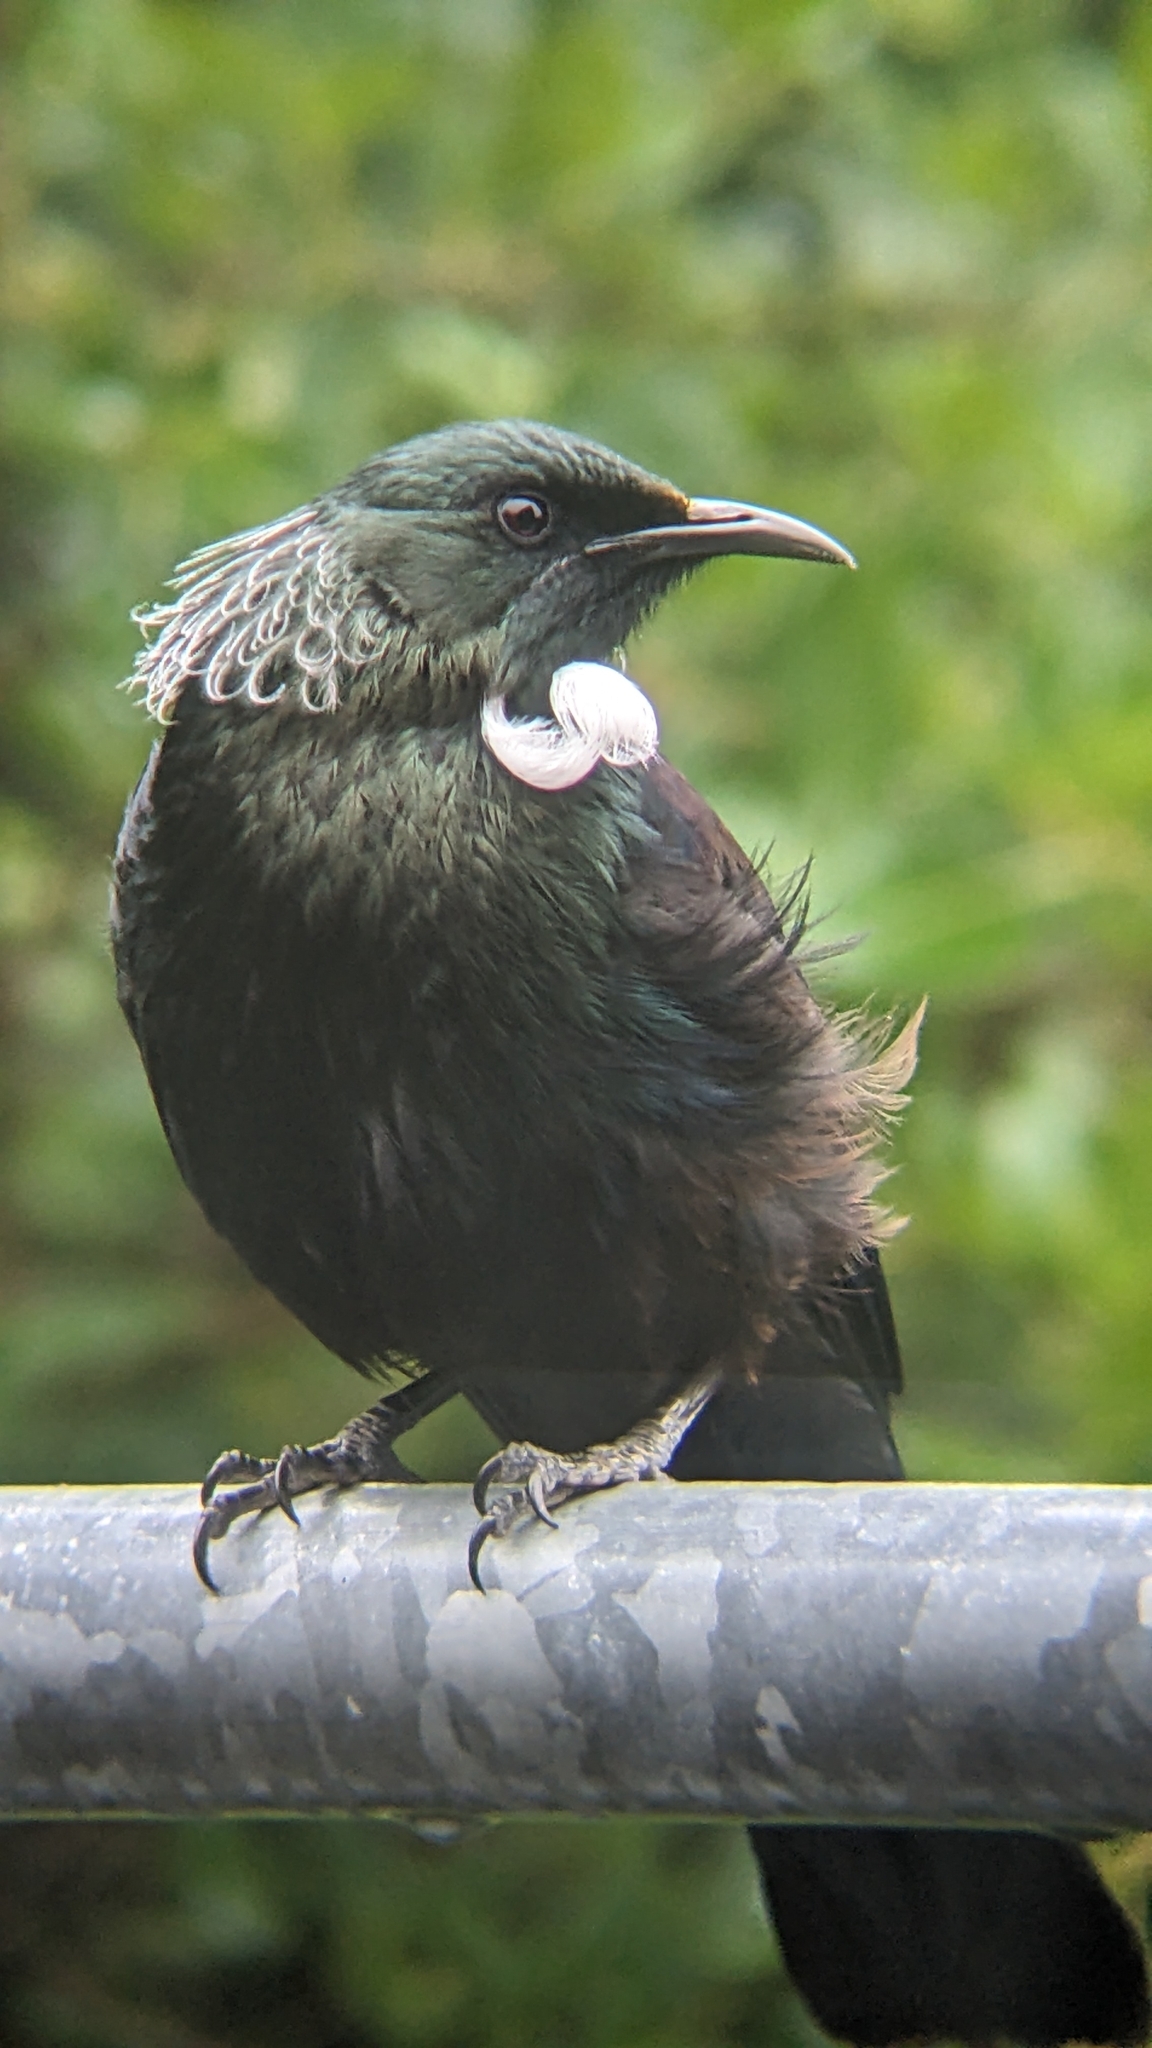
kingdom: Animalia
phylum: Chordata
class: Aves
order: Passeriformes
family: Meliphagidae
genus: Prosthemadera
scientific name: Prosthemadera novaeseelandiae
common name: Tui
